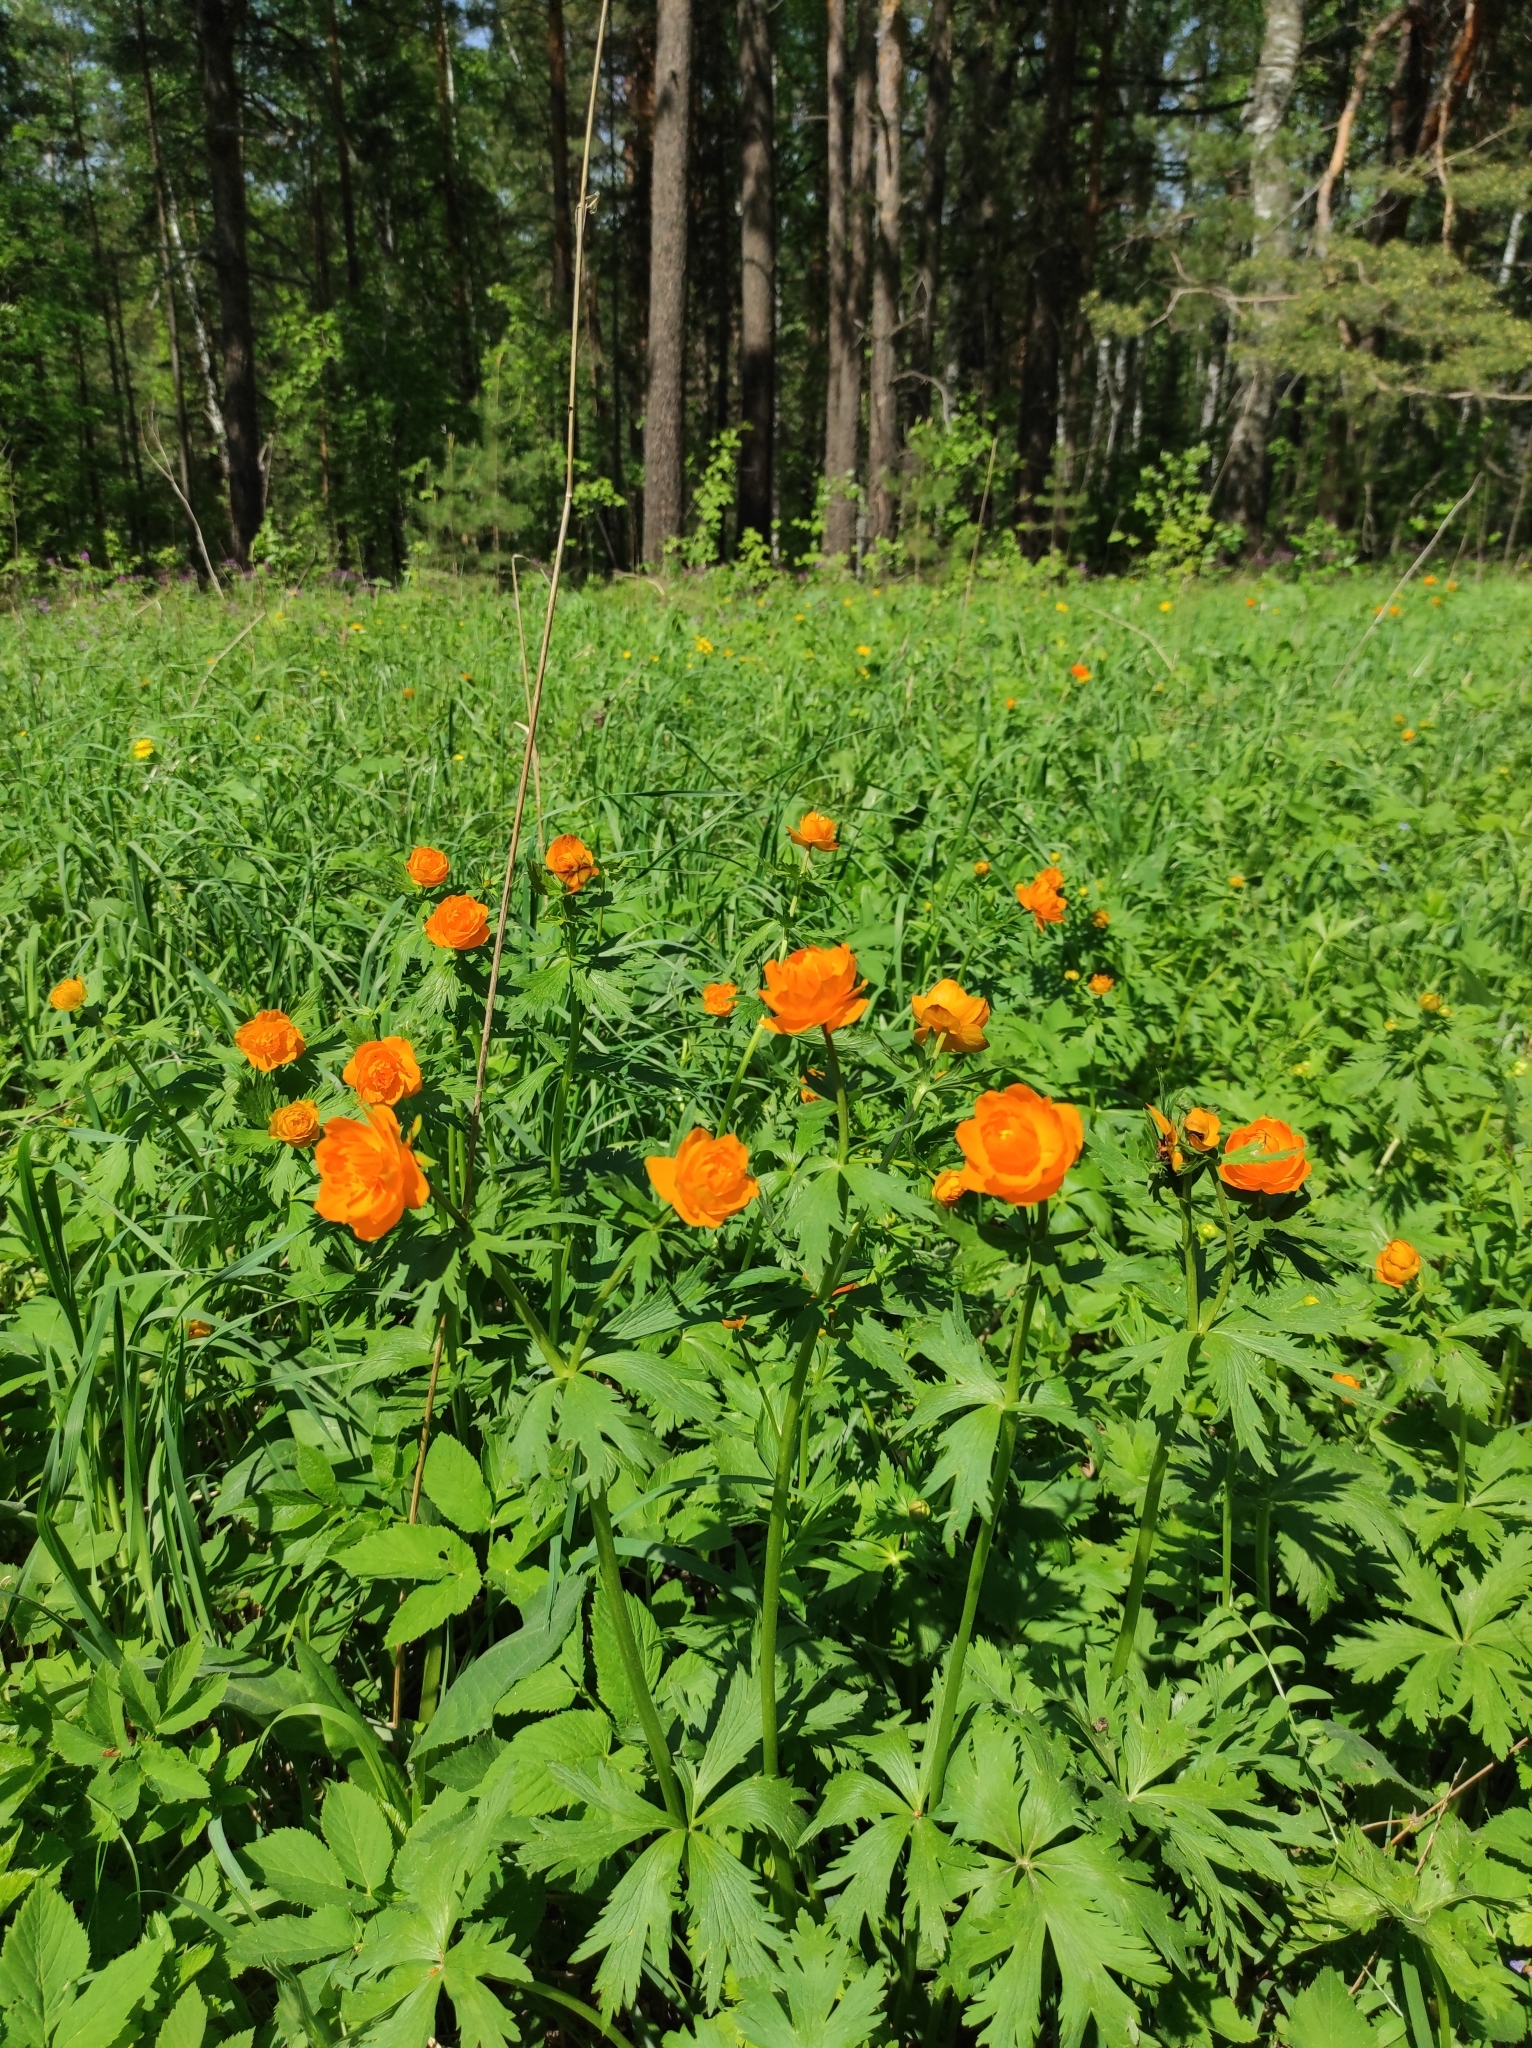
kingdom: Plantae
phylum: Tracheophyta
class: Magnoliopsida
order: Ranunculales
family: Ranunculaceae
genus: Trollius
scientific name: Trollius asiaticus
